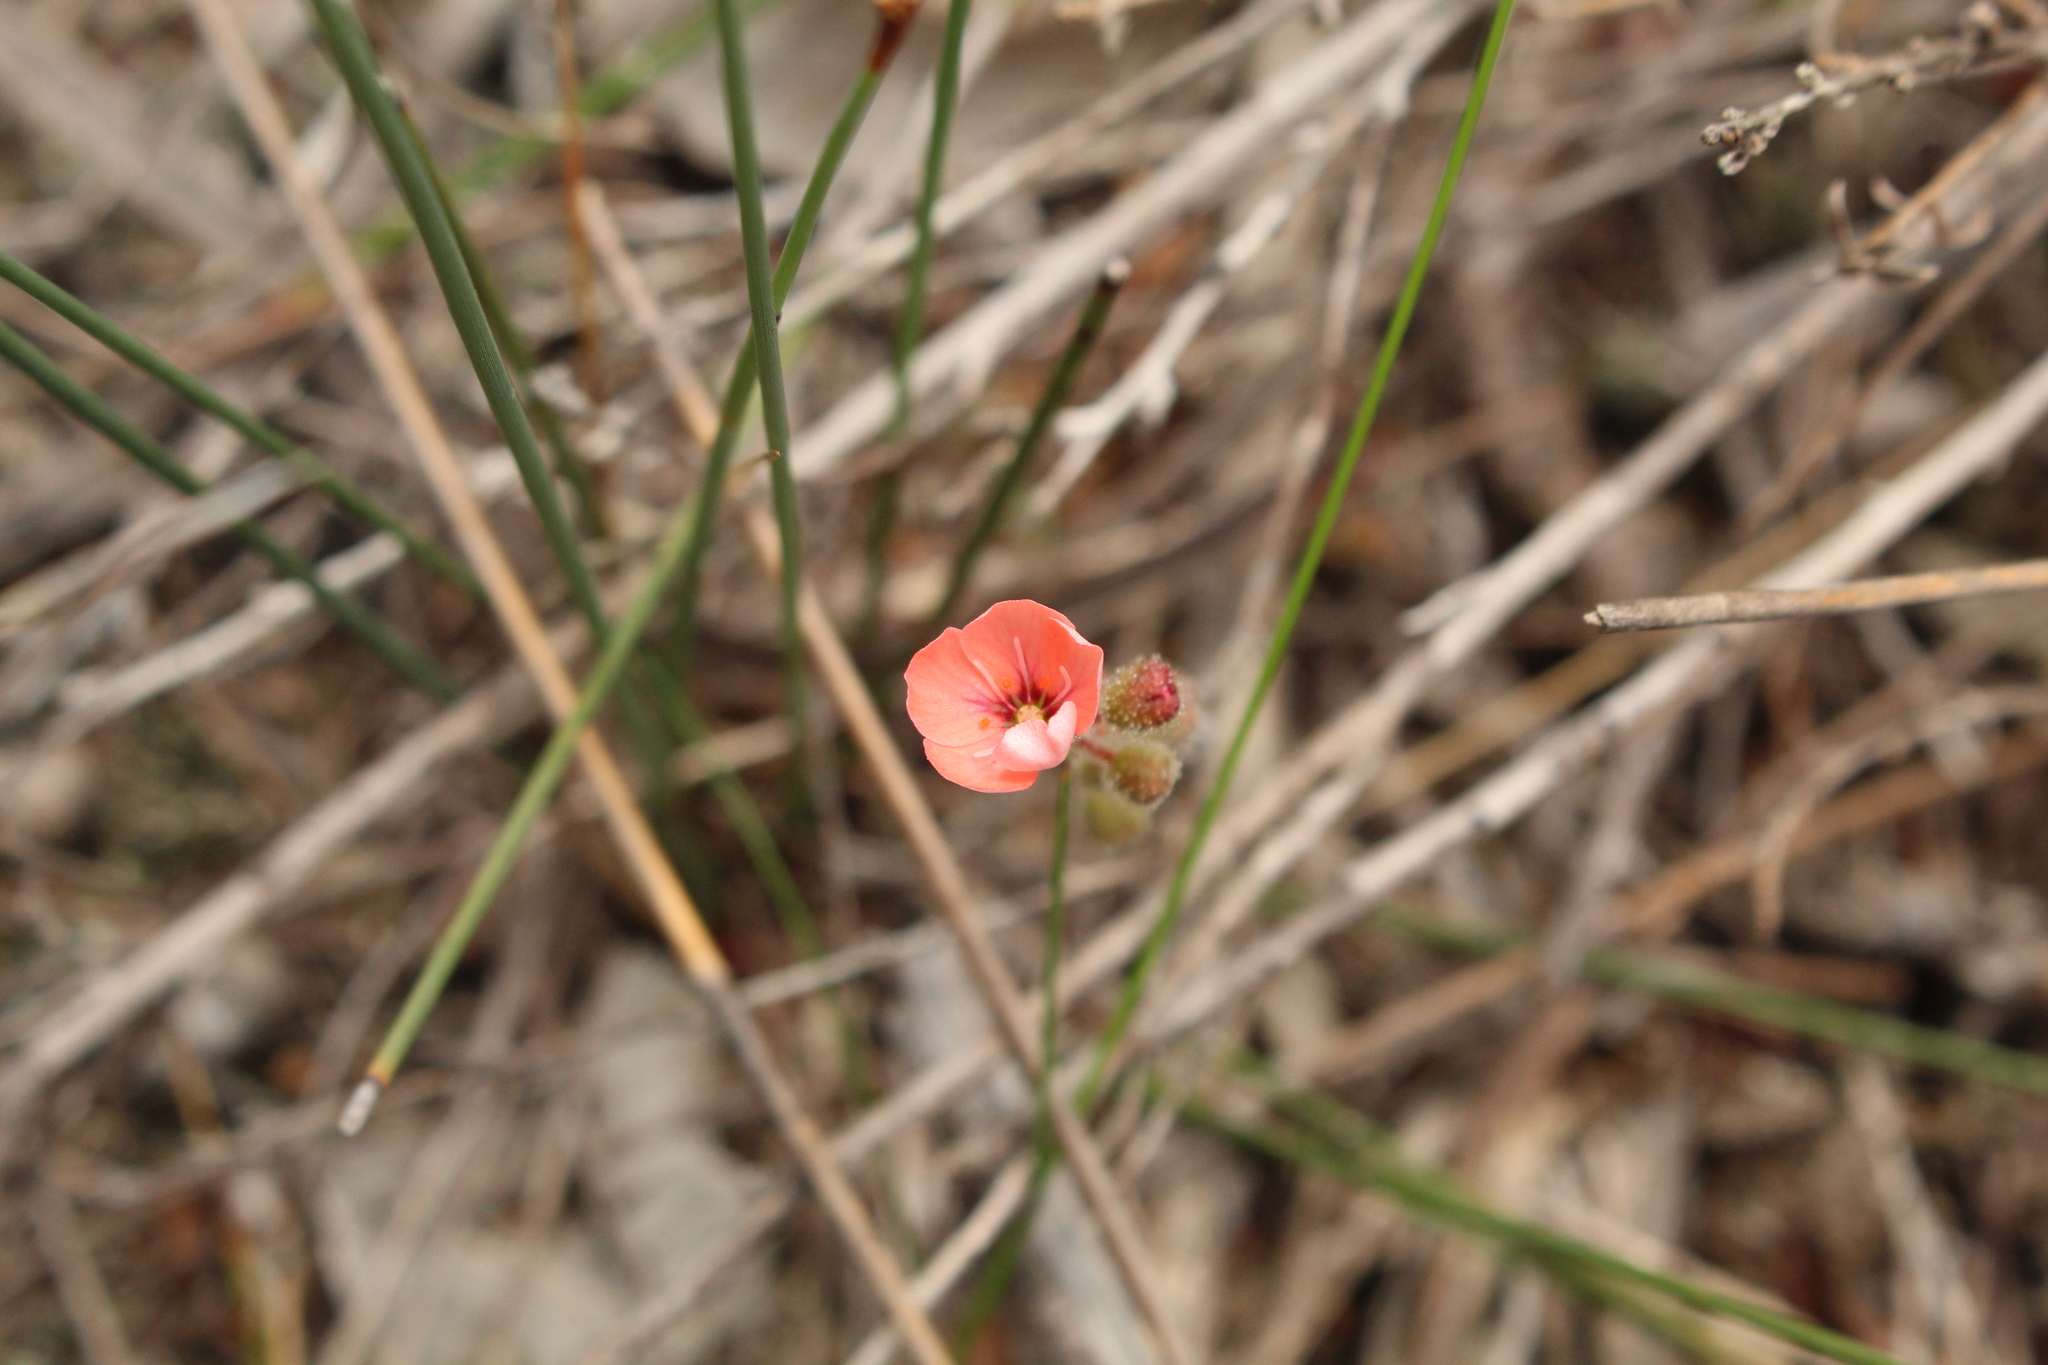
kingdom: Plantae
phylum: Tracheophyta
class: Magnoliopsida
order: Caryophyllales
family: Droseraceae
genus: Drosera
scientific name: Drosera pulchella
